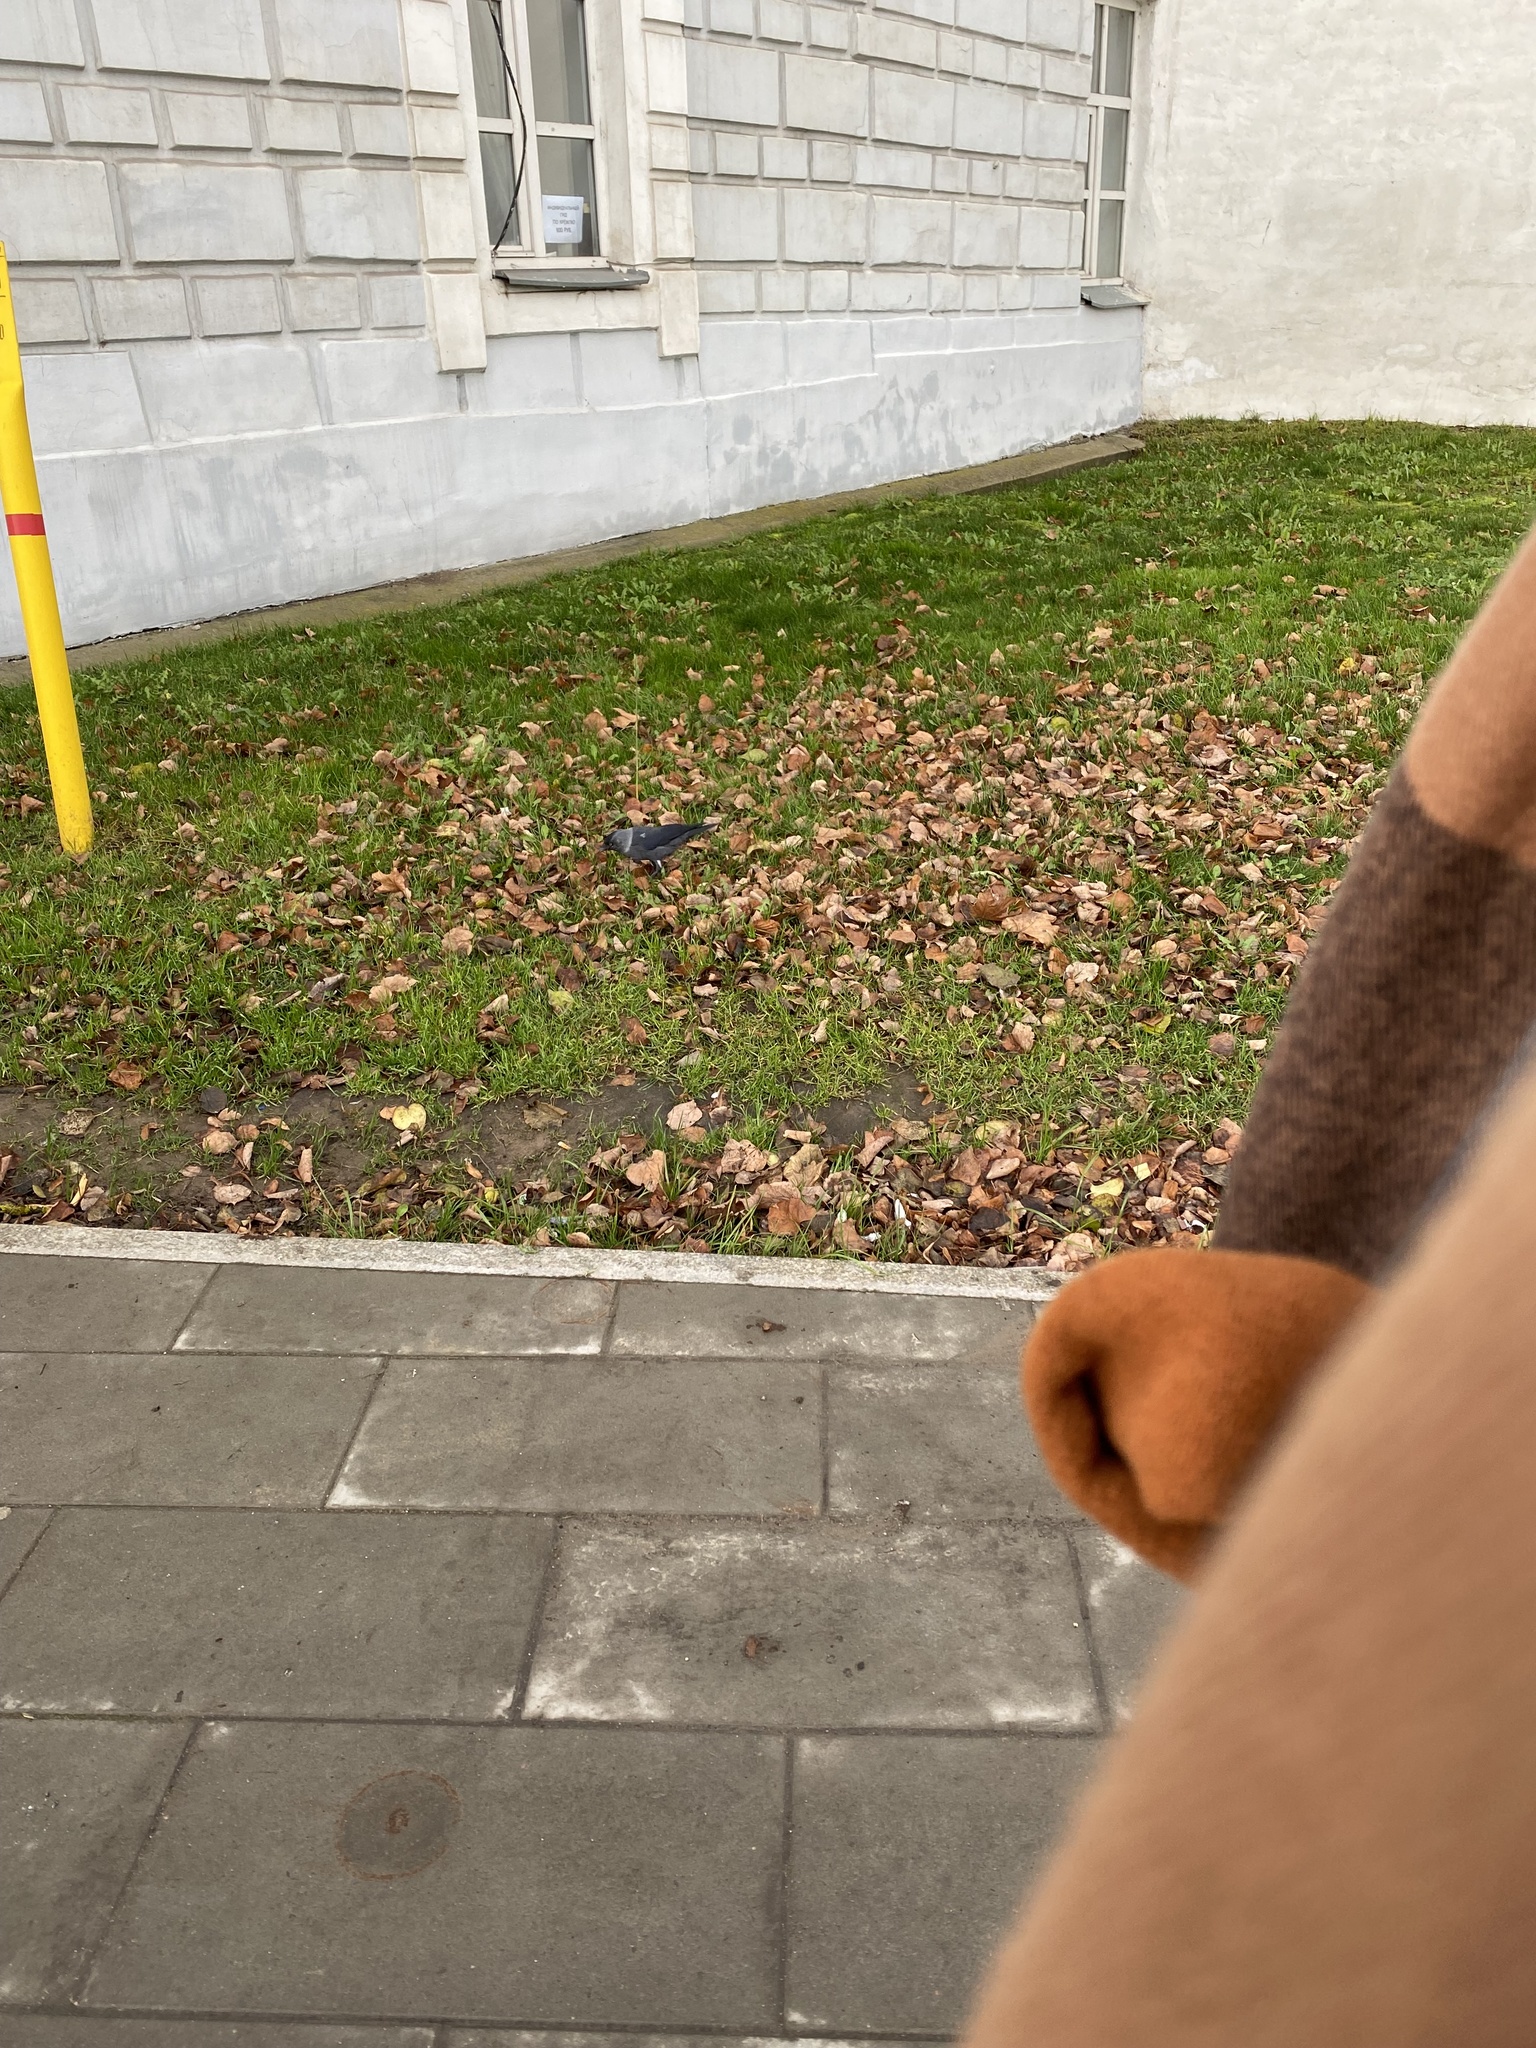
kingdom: Animalia
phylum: Chordata
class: Aves
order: Passeriformes
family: Corvidae
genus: Coloeus
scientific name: Coloeus monedula
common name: Western jackdaw
